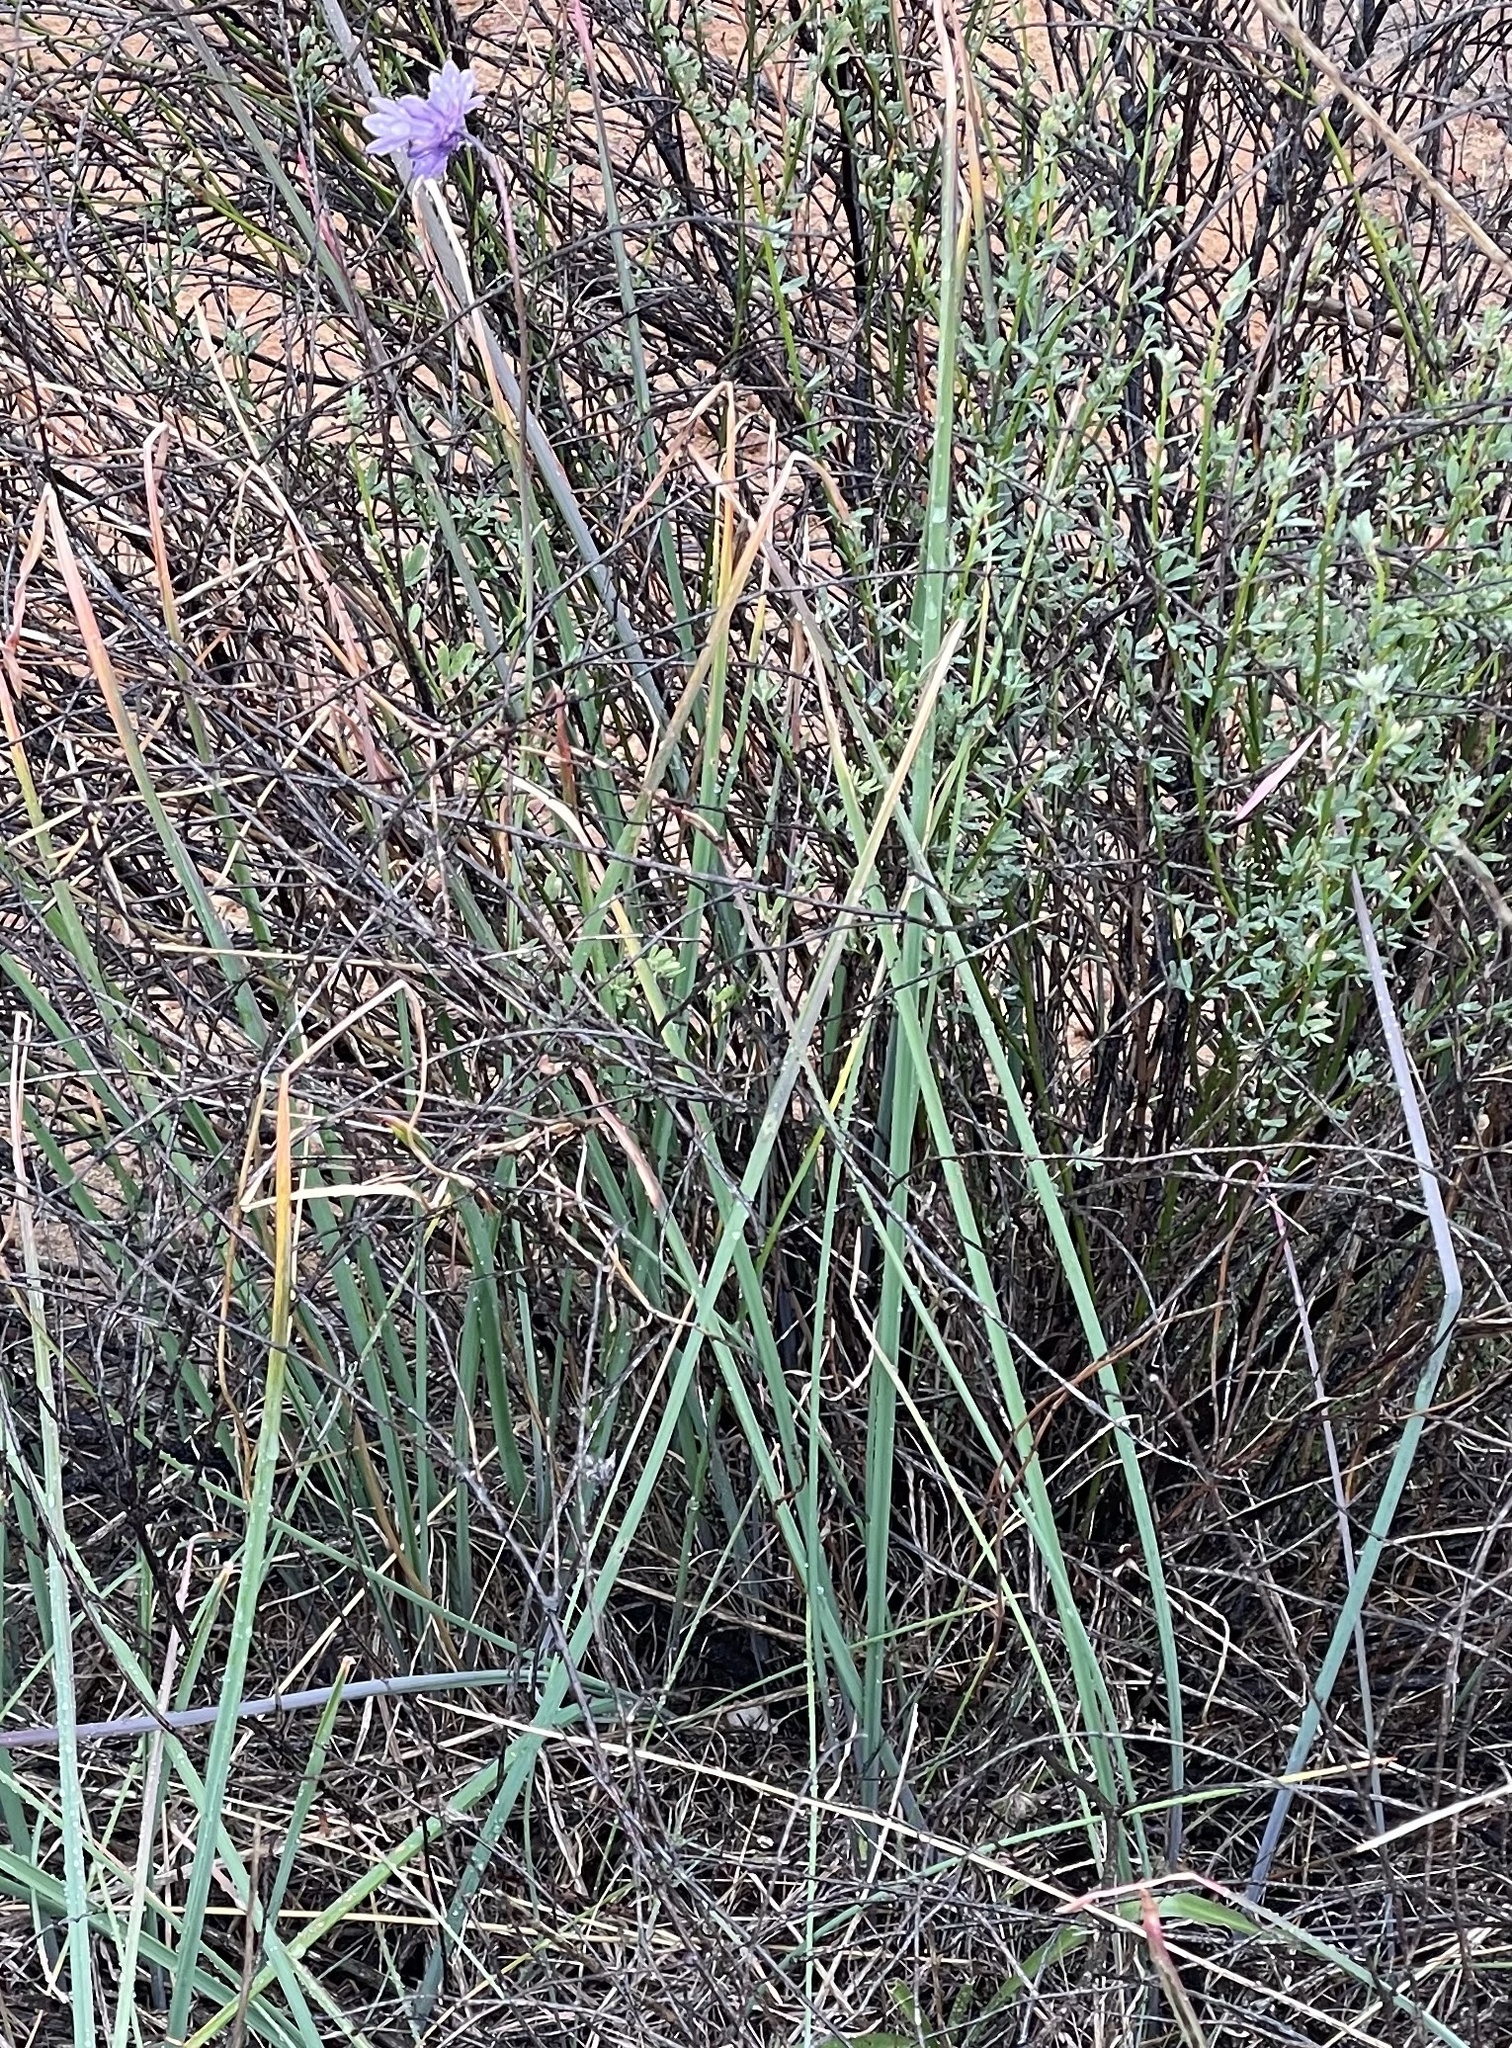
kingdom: Plantae
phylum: Tracheophyta
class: Liliopsida
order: Asparagales
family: Asparagaceae
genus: Dipterostemon
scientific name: Dipterostemon capitatus
